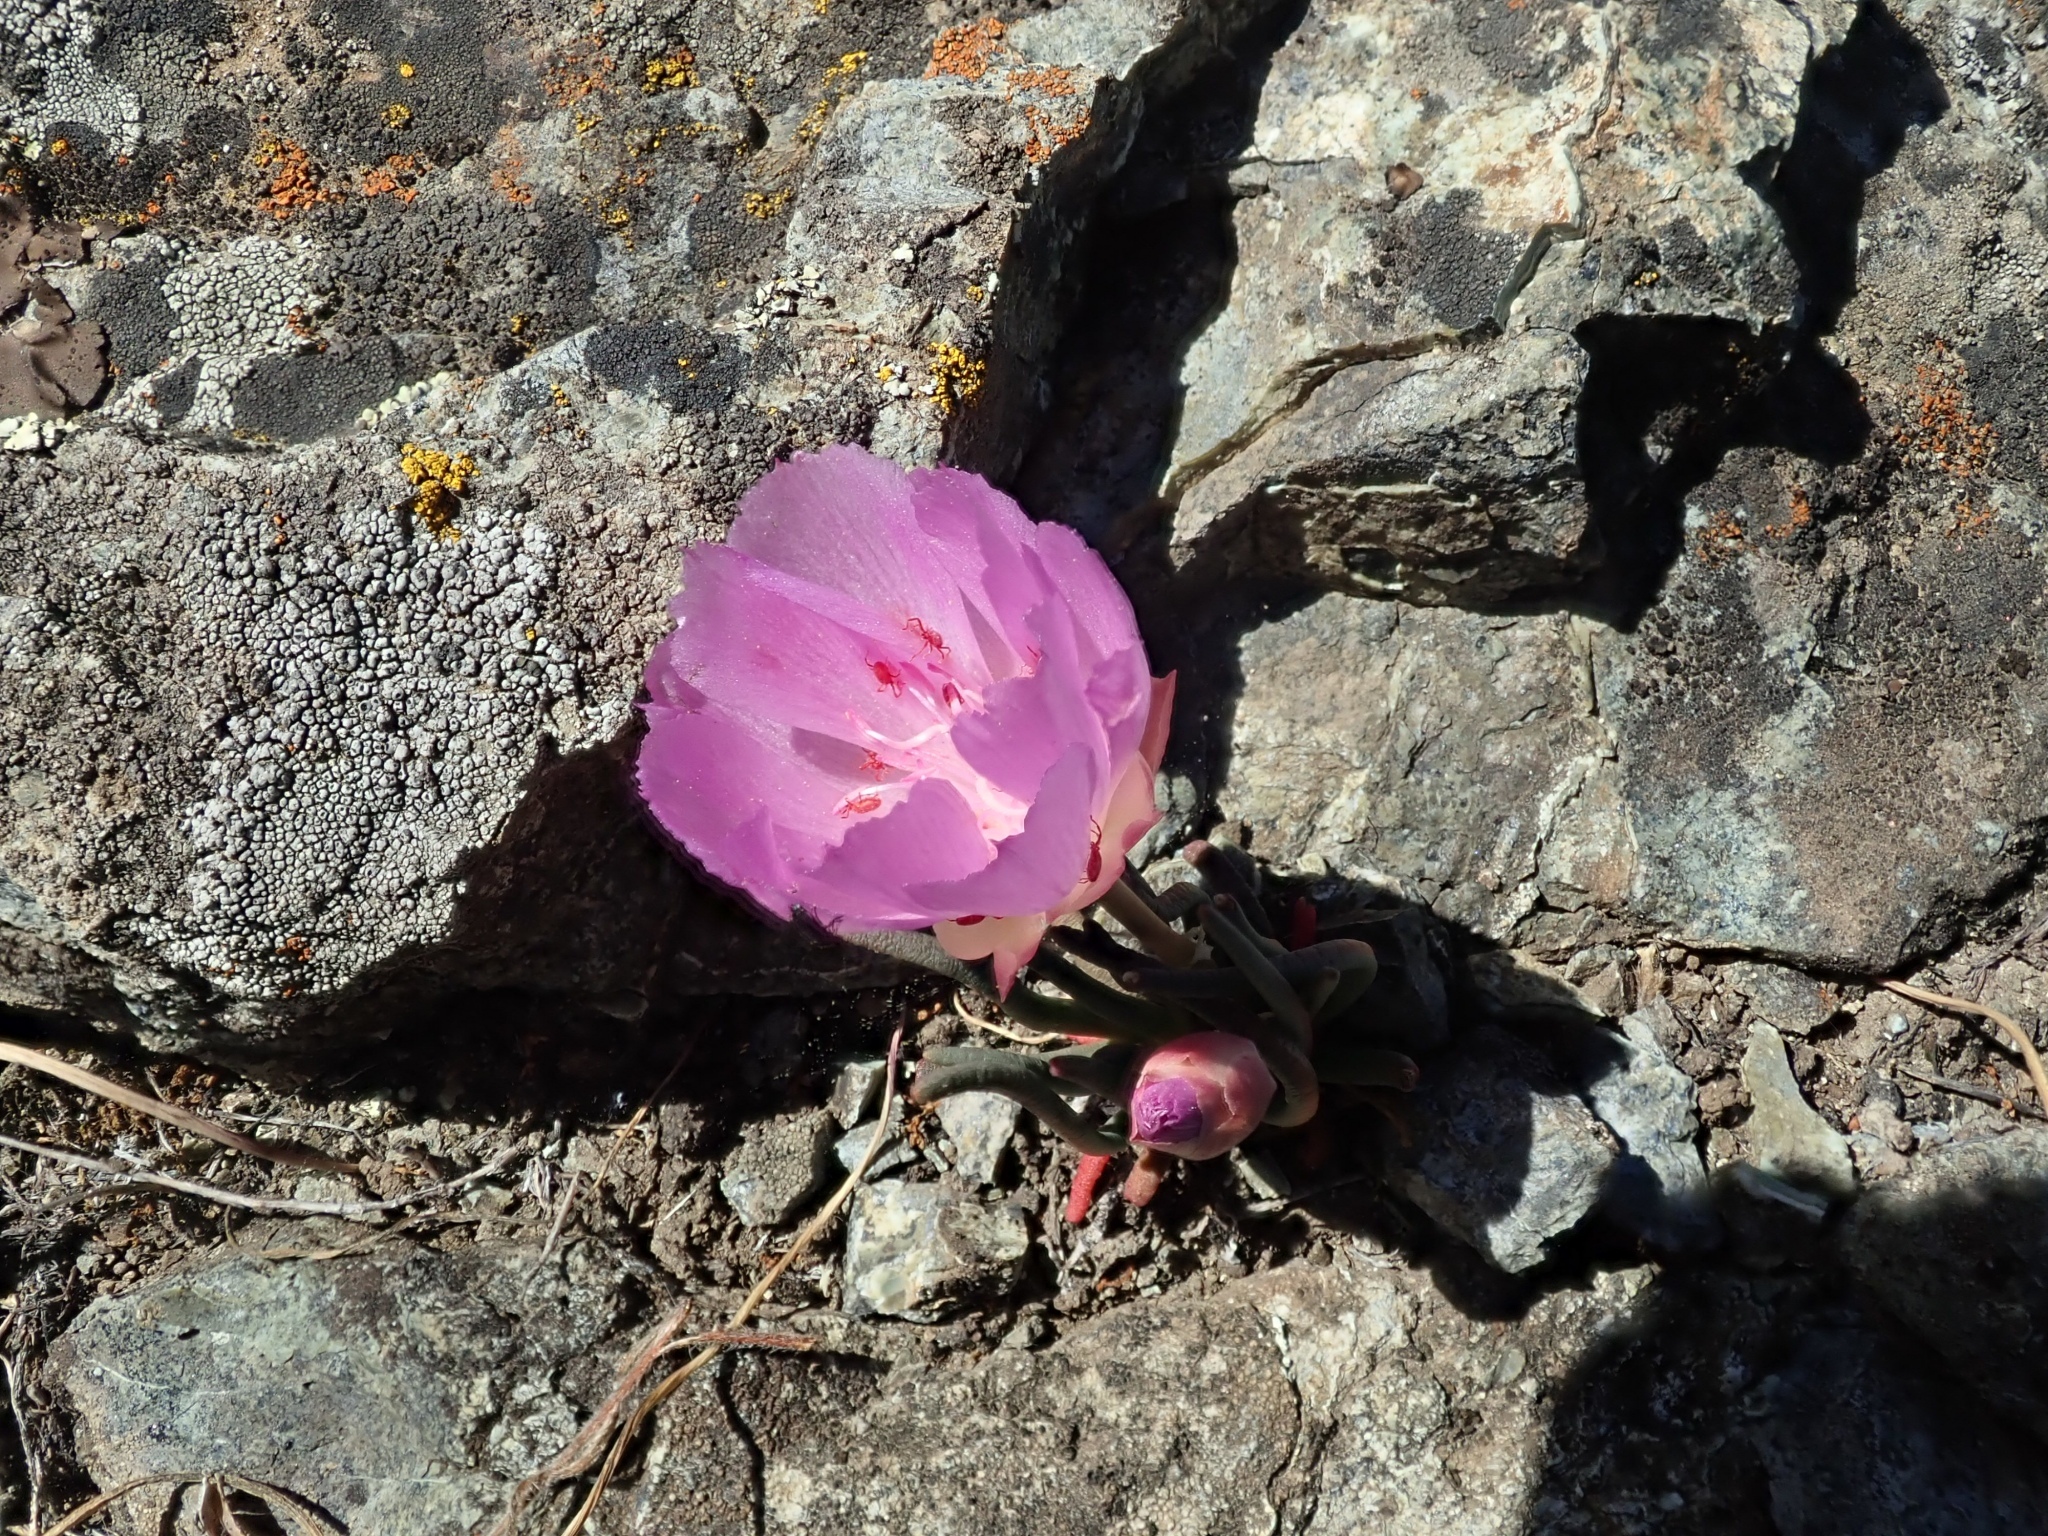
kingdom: Plantae
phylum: Tracheophyta
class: Magnoliopsida
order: Caryophyllales
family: Montiaceae
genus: Lewisia
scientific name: Lewisia rediviva
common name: Bitter-root
